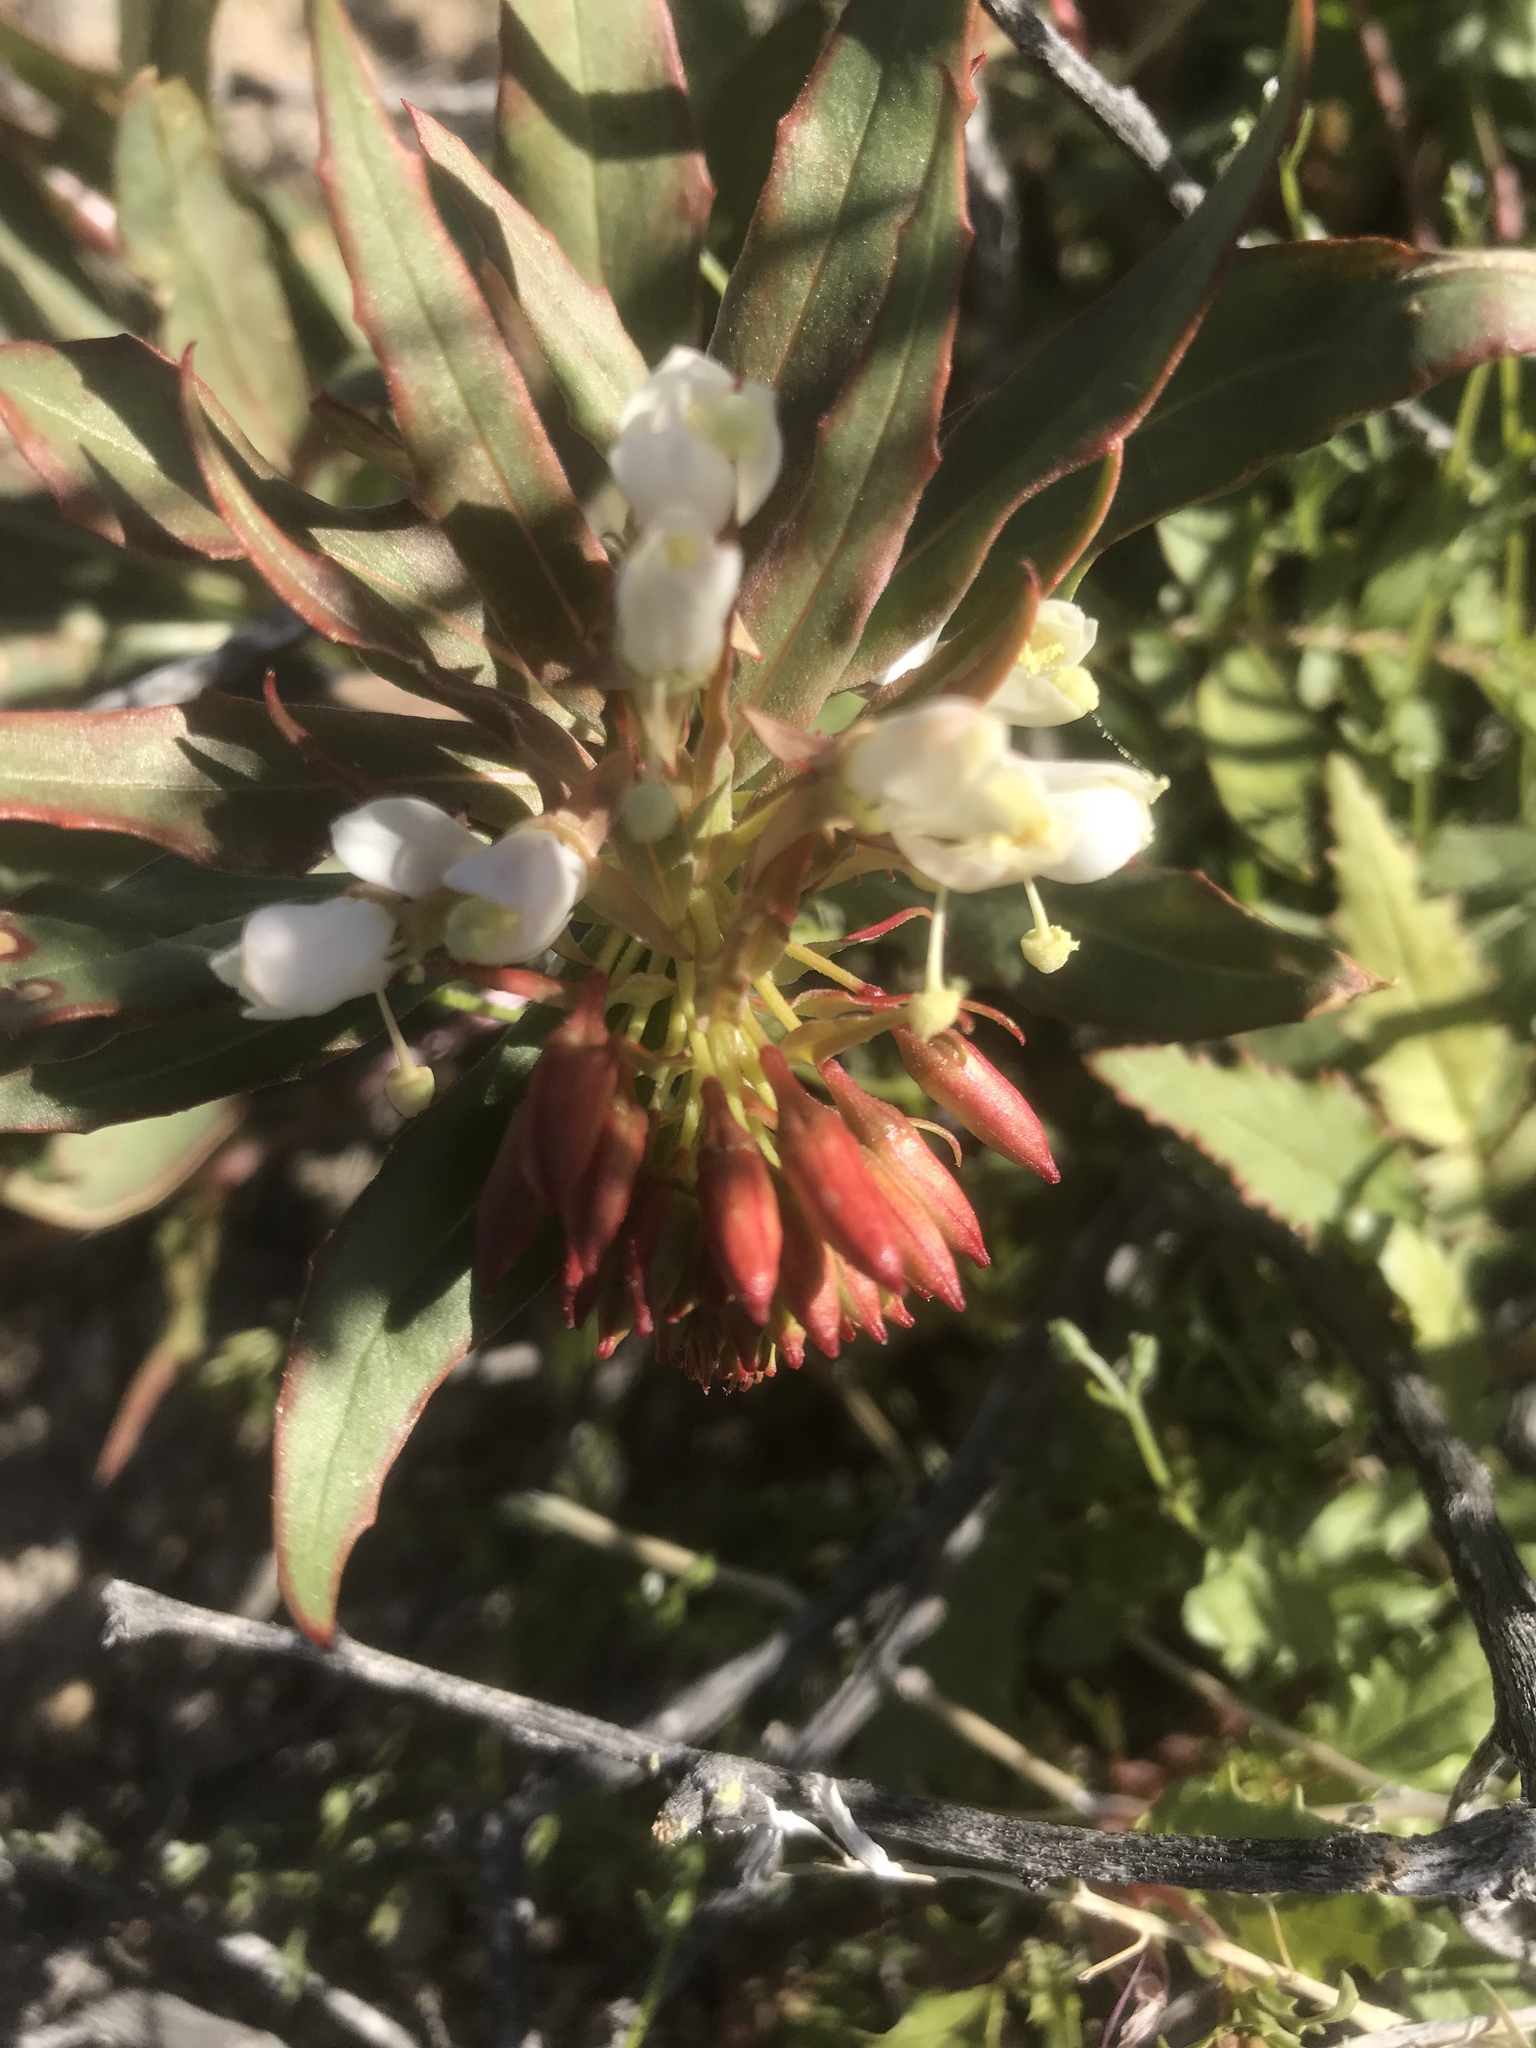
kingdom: Plantae
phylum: Tracheophyta
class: Magnoliopsida
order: Myrtales
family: Onagraceae
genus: Eremothera
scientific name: Eremothera boothii
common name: Booth's evening primrose
